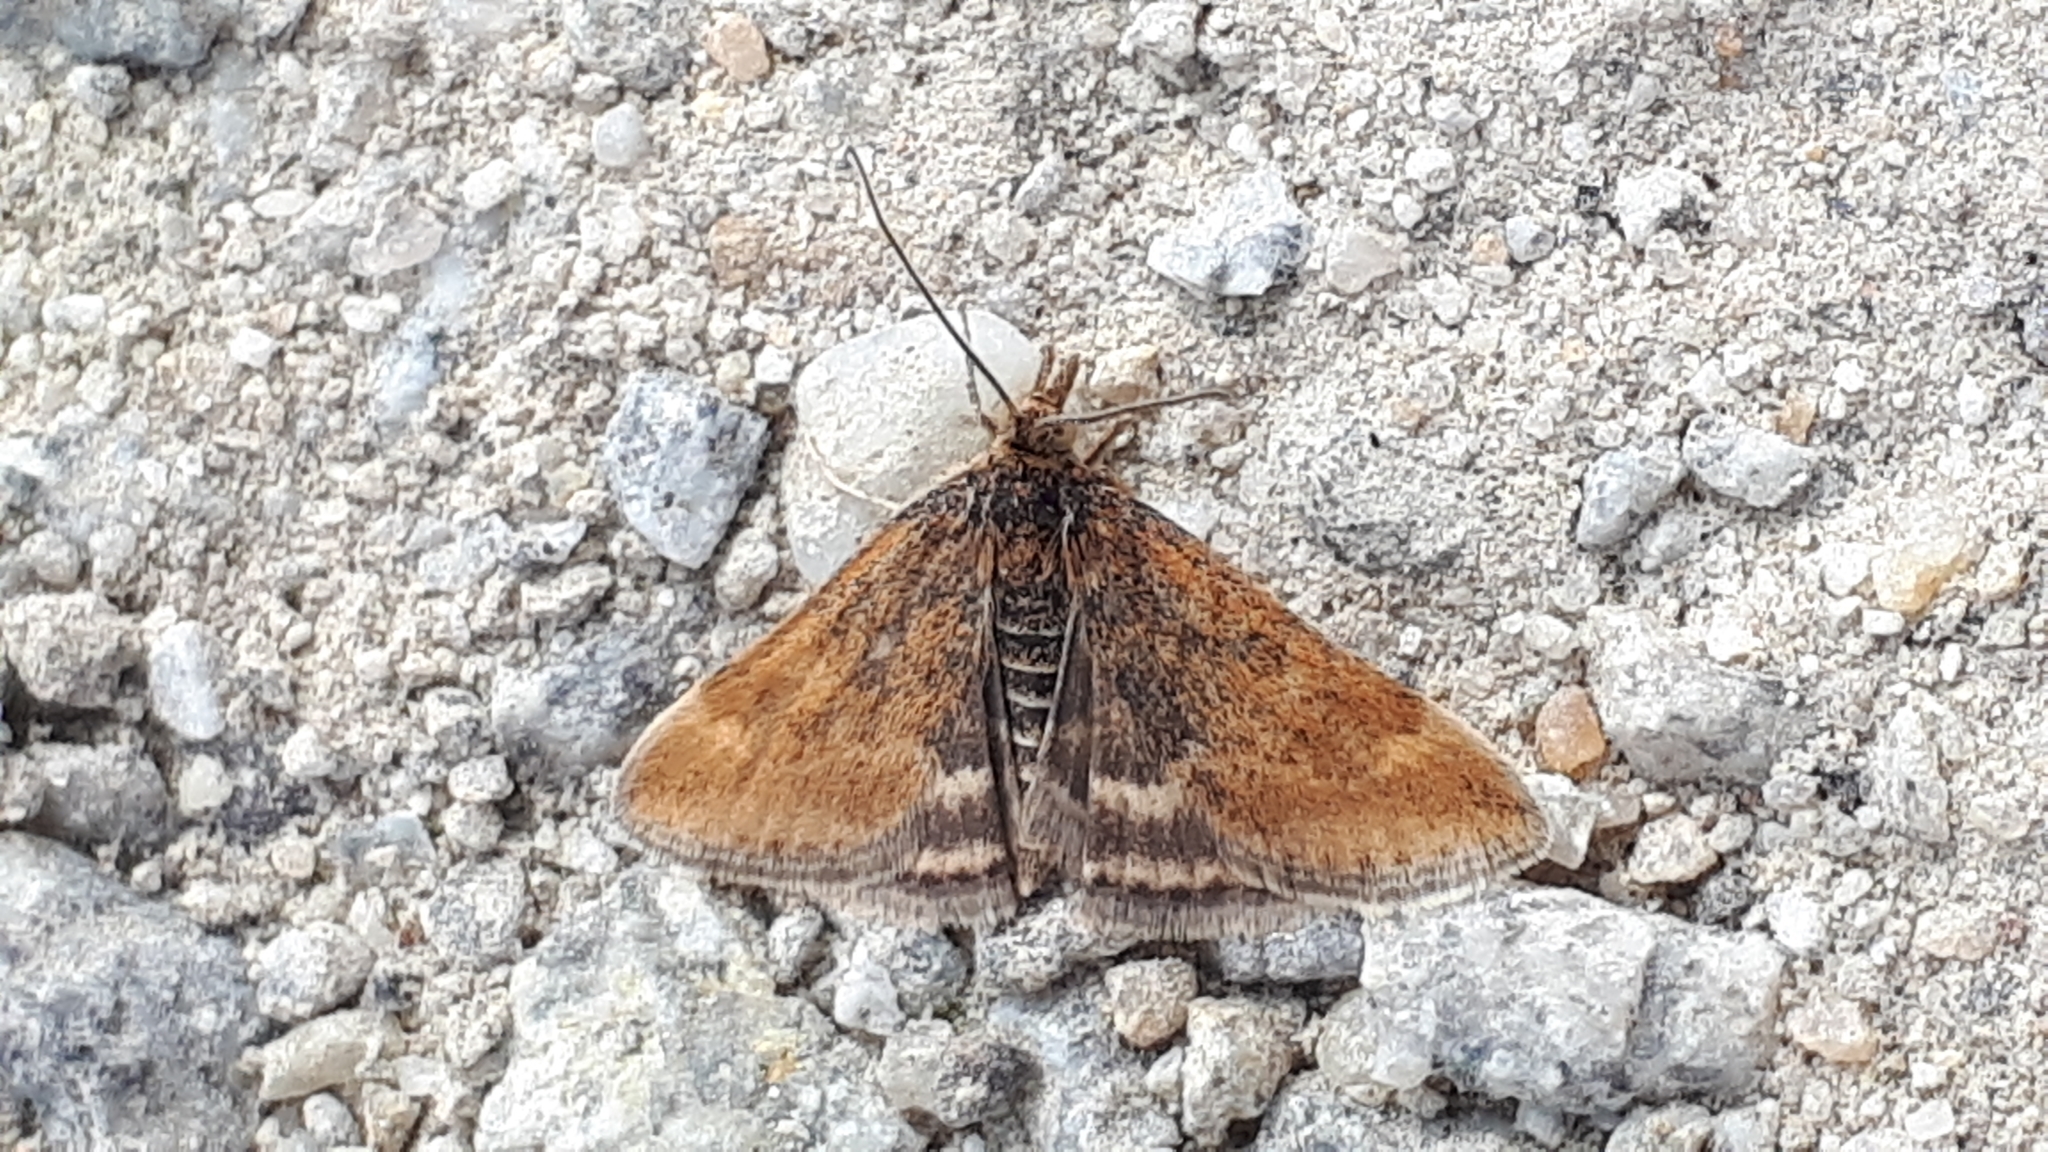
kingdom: Animalia
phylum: Arthropoda
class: Insecta
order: Lepidoptera
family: Crambidae
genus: Pyrausta
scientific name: Pyrausta despicata
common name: Straw-barred pearl
